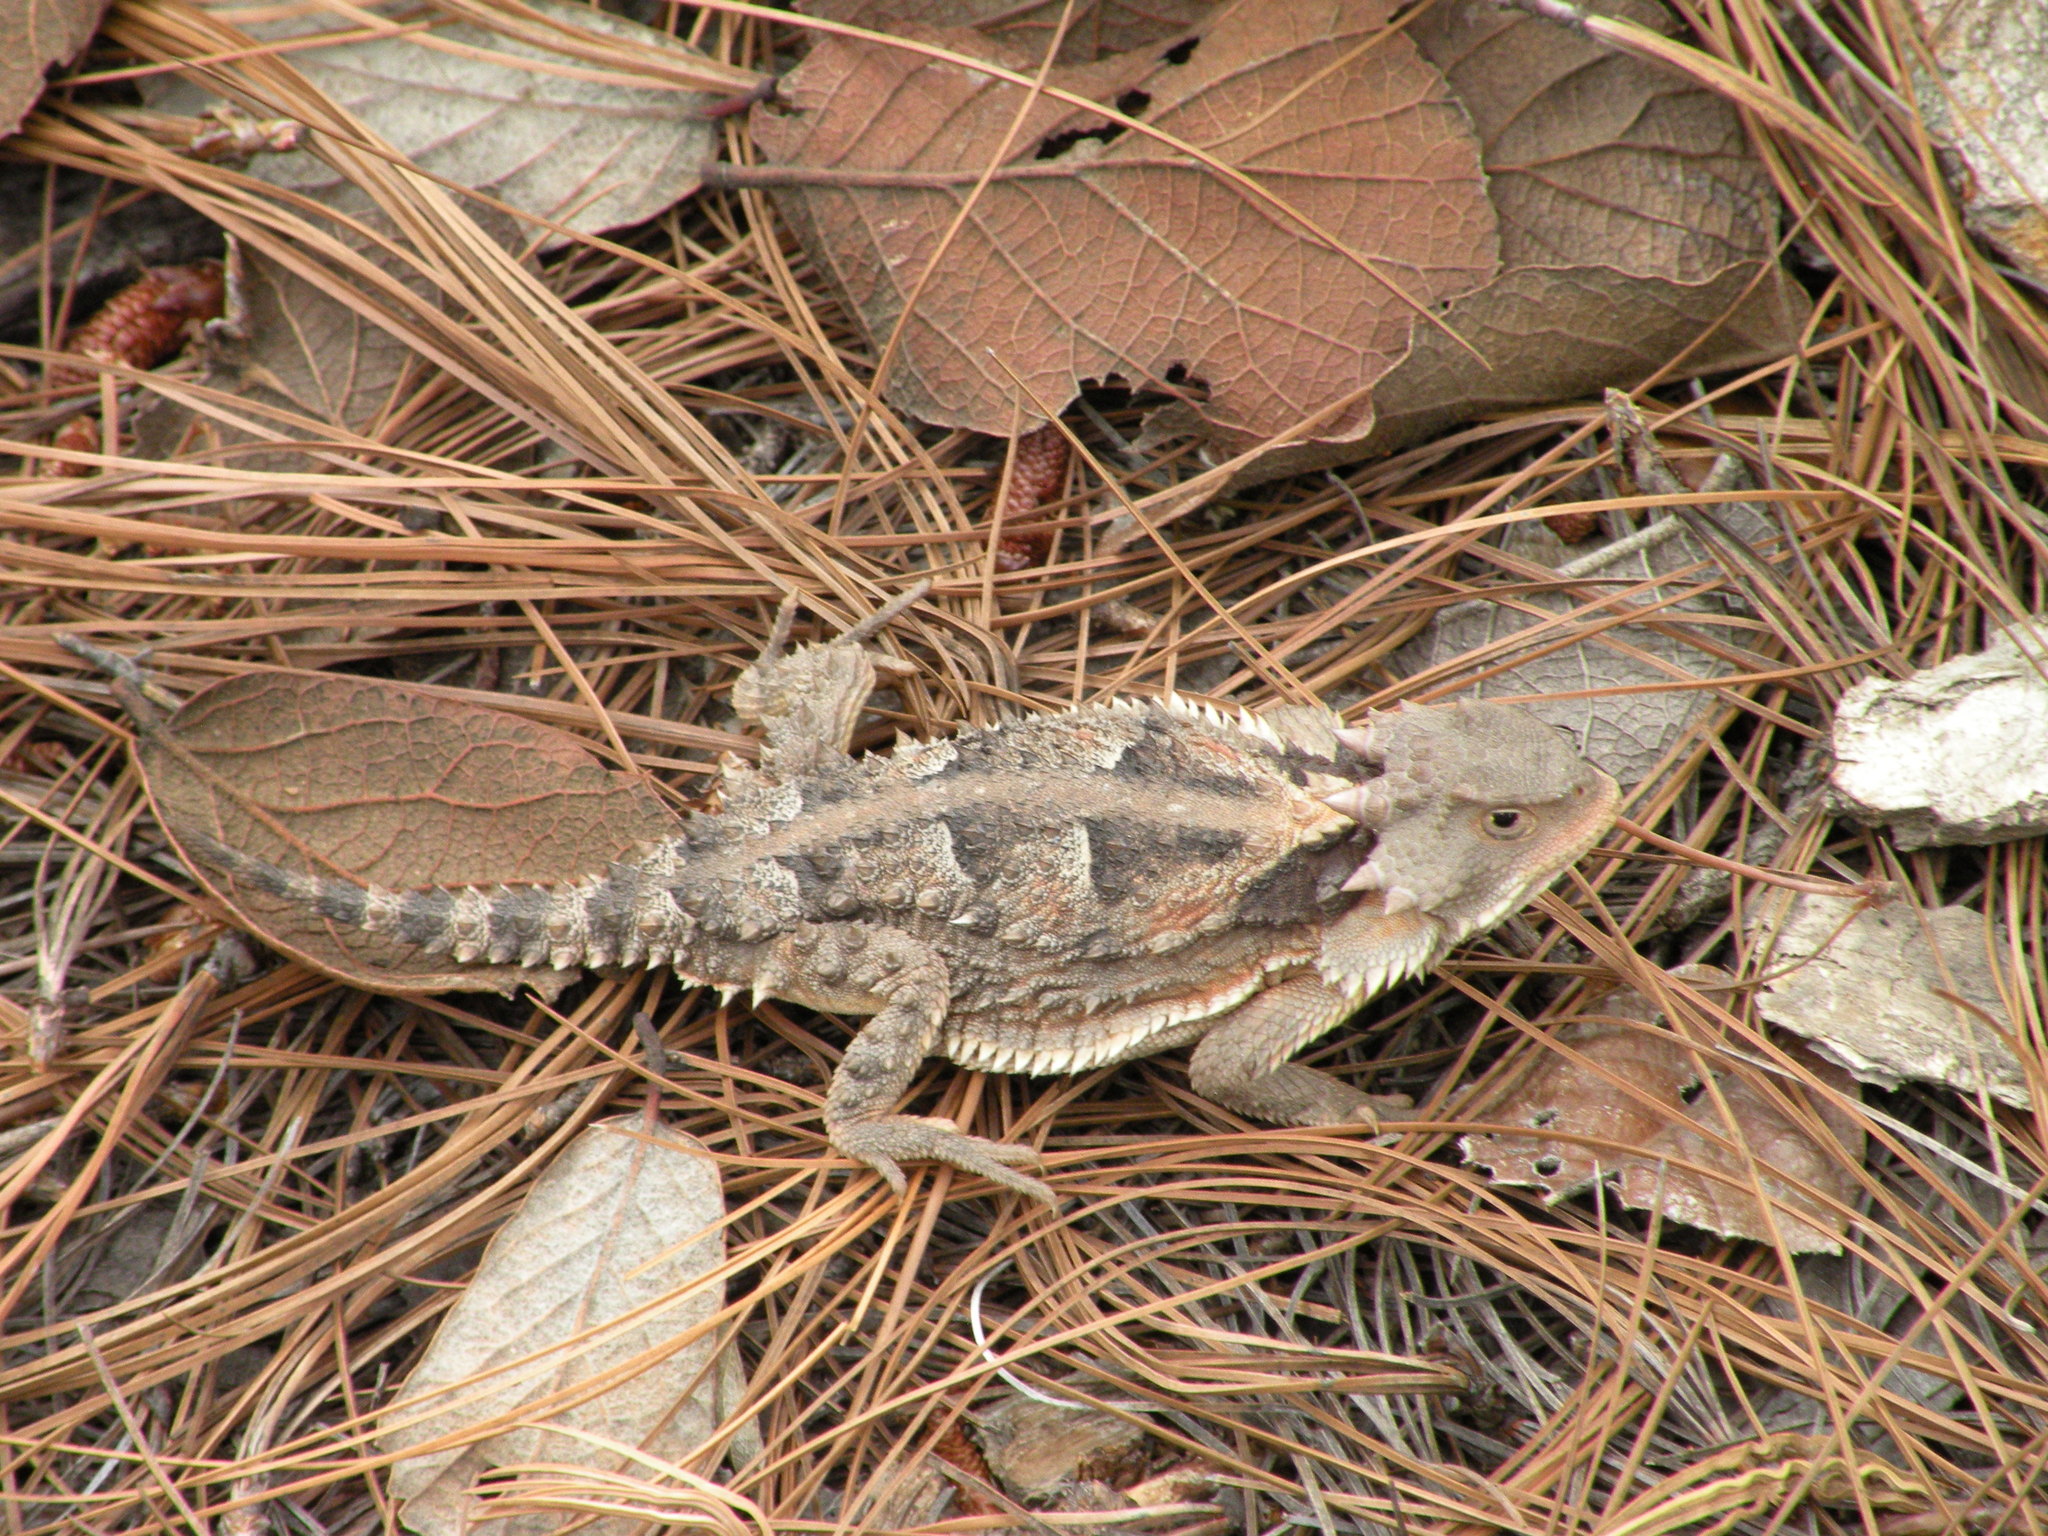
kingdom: Animalia
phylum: Chordata
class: Squamata
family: Phrynosomatidae
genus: Phrynosoma
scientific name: Phrynosoma orbiculare
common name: Mountain horned lizard
